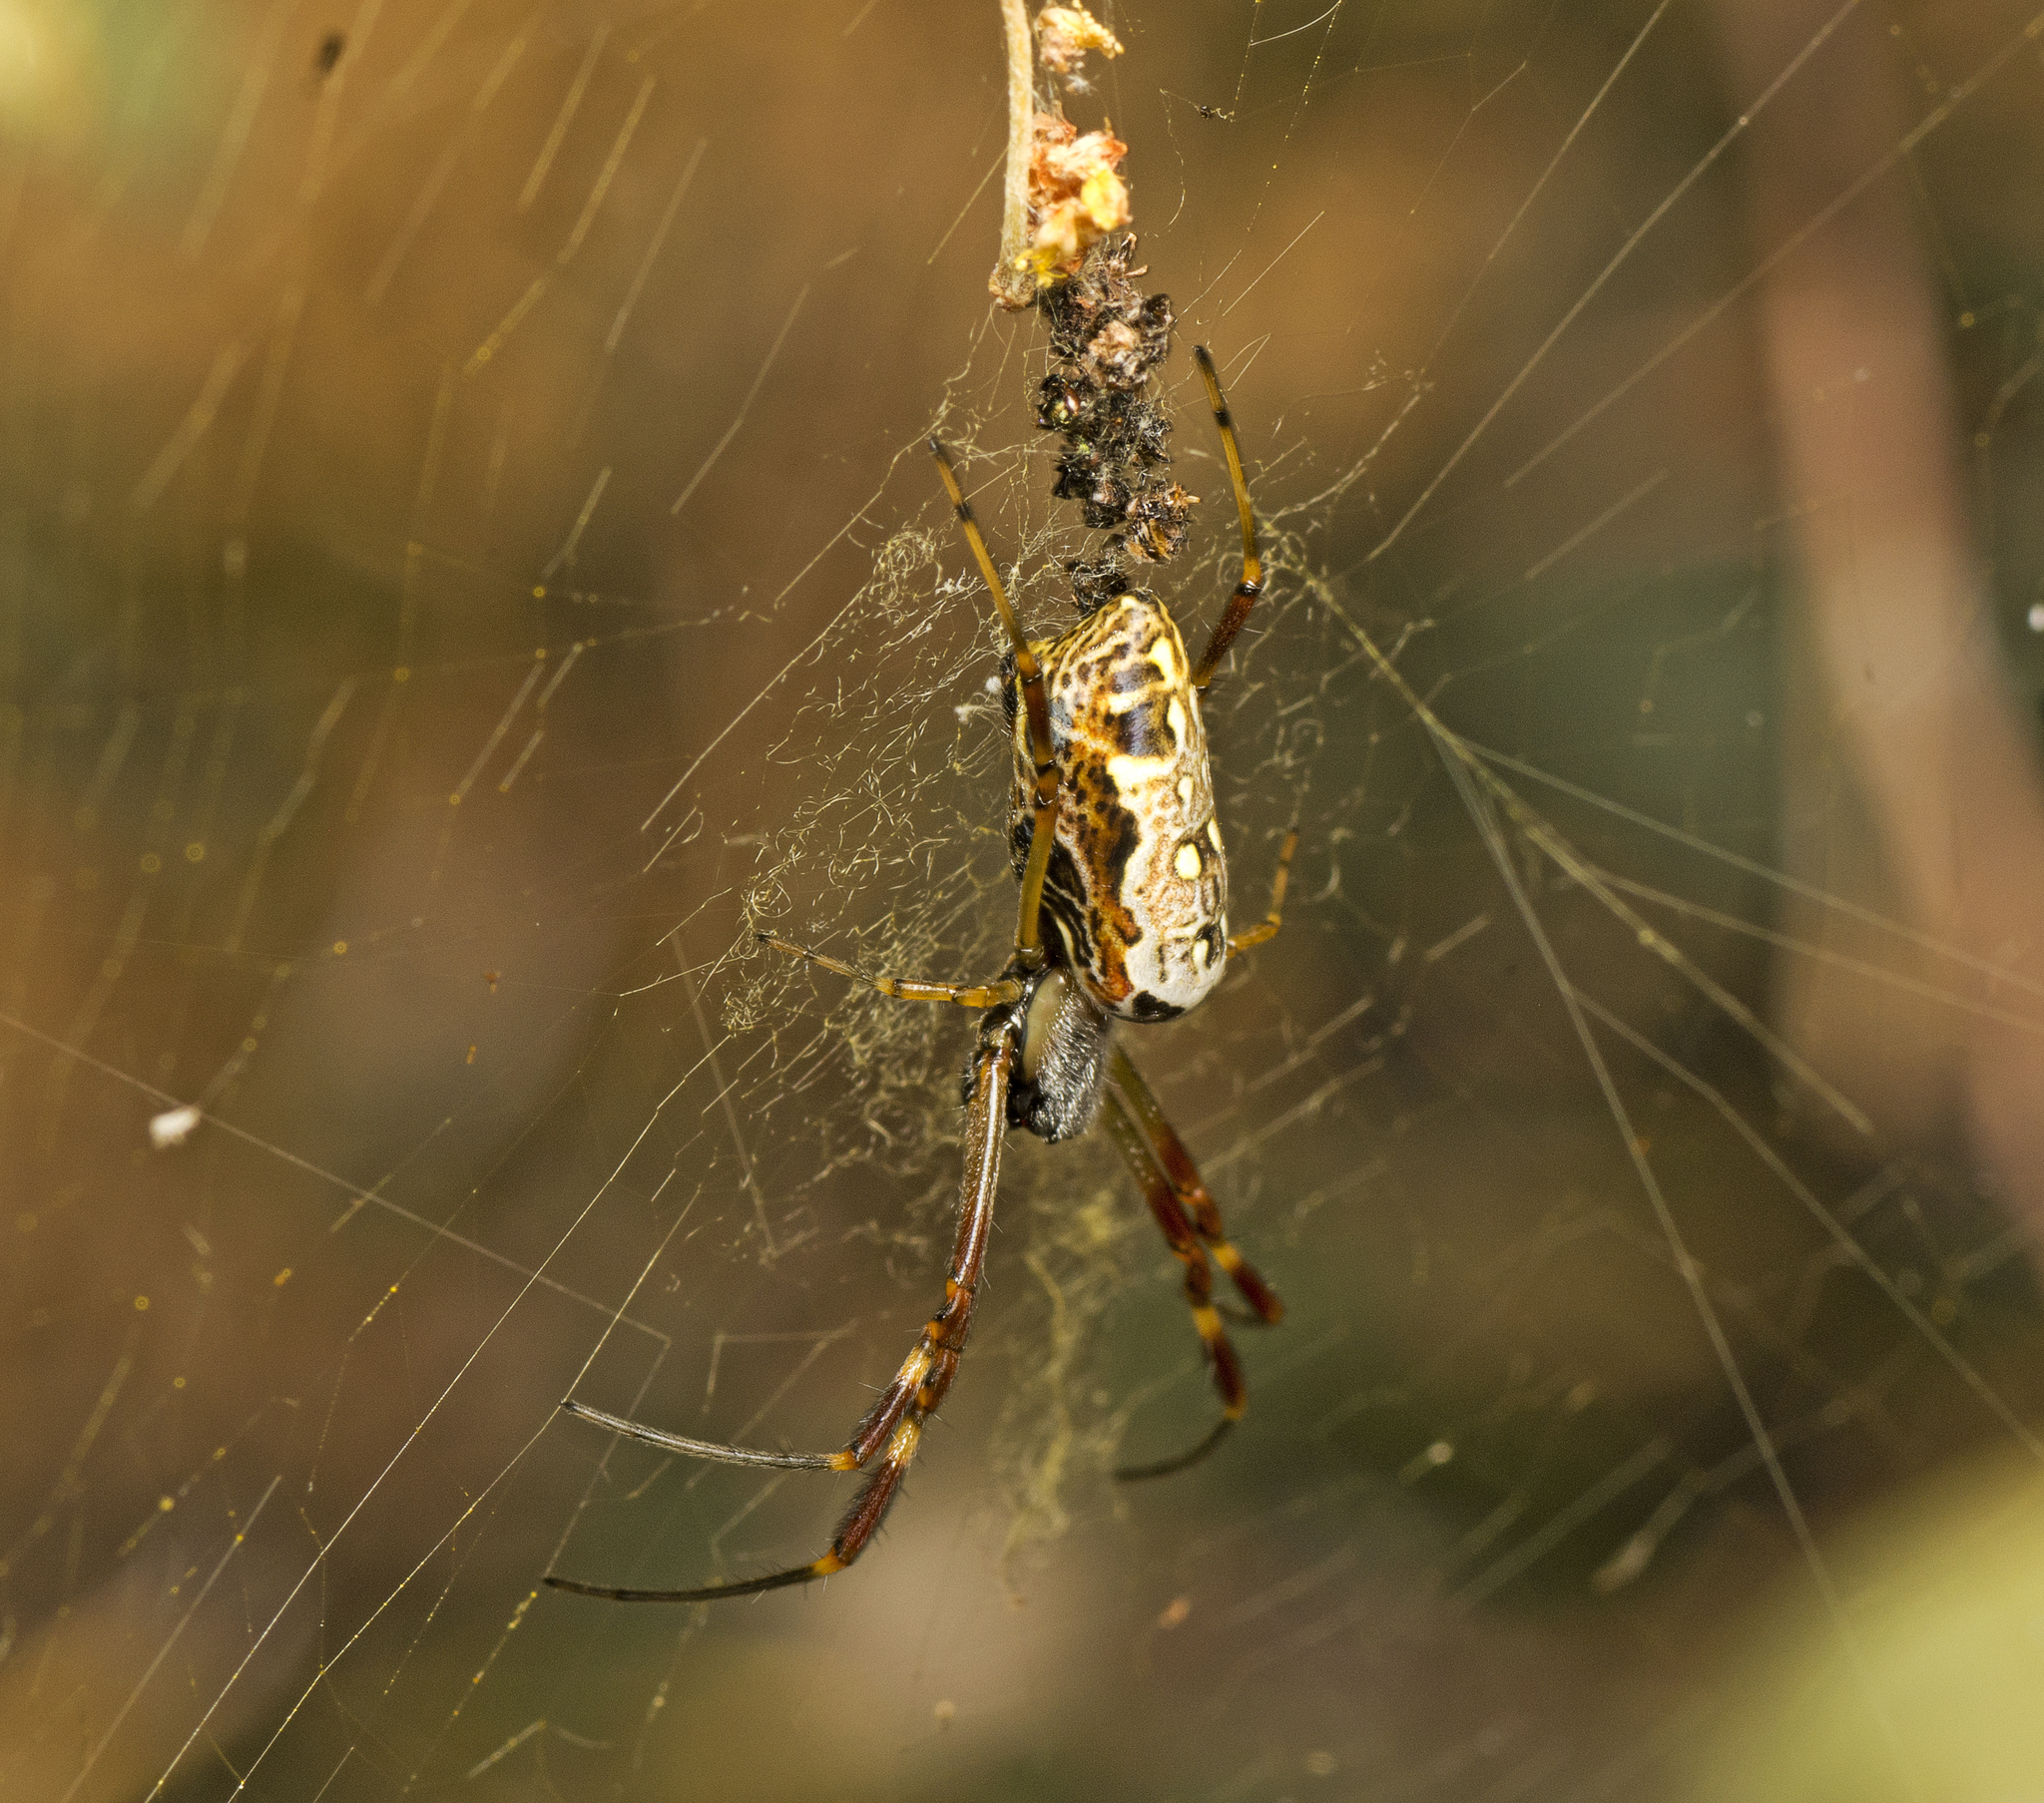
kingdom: Animalia
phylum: Arthropoda
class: Arachnida
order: Araneae
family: Araneidae
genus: Trichonephila
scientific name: Trichonephila edulis
